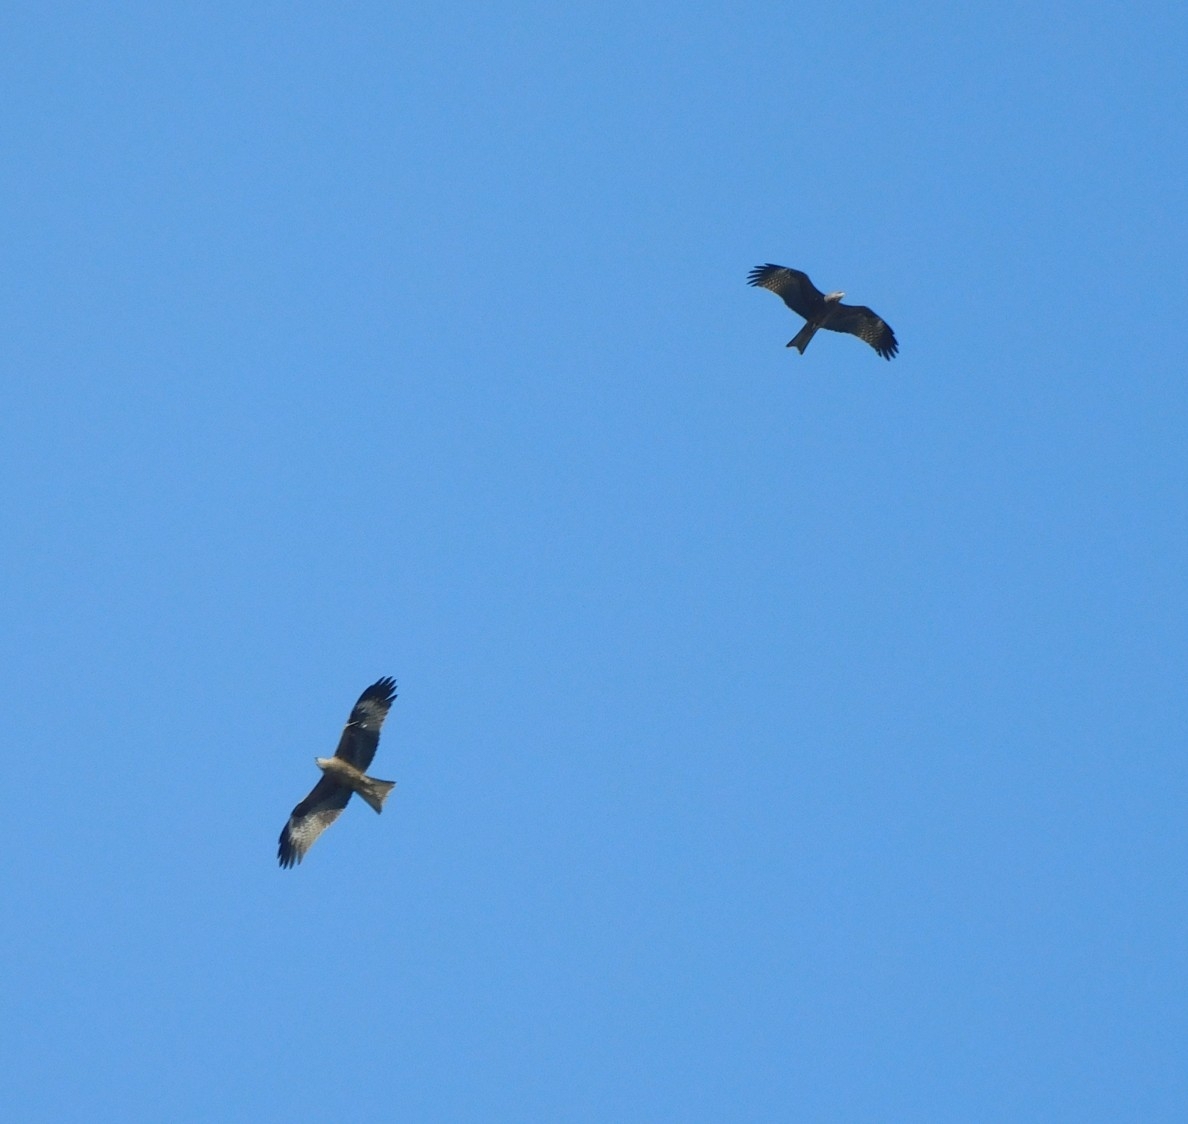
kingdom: Animalia
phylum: Chordata
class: Aves
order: Accipitriformes
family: Accipitridae
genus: Milvus
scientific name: Milvus migrans
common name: Black kite
